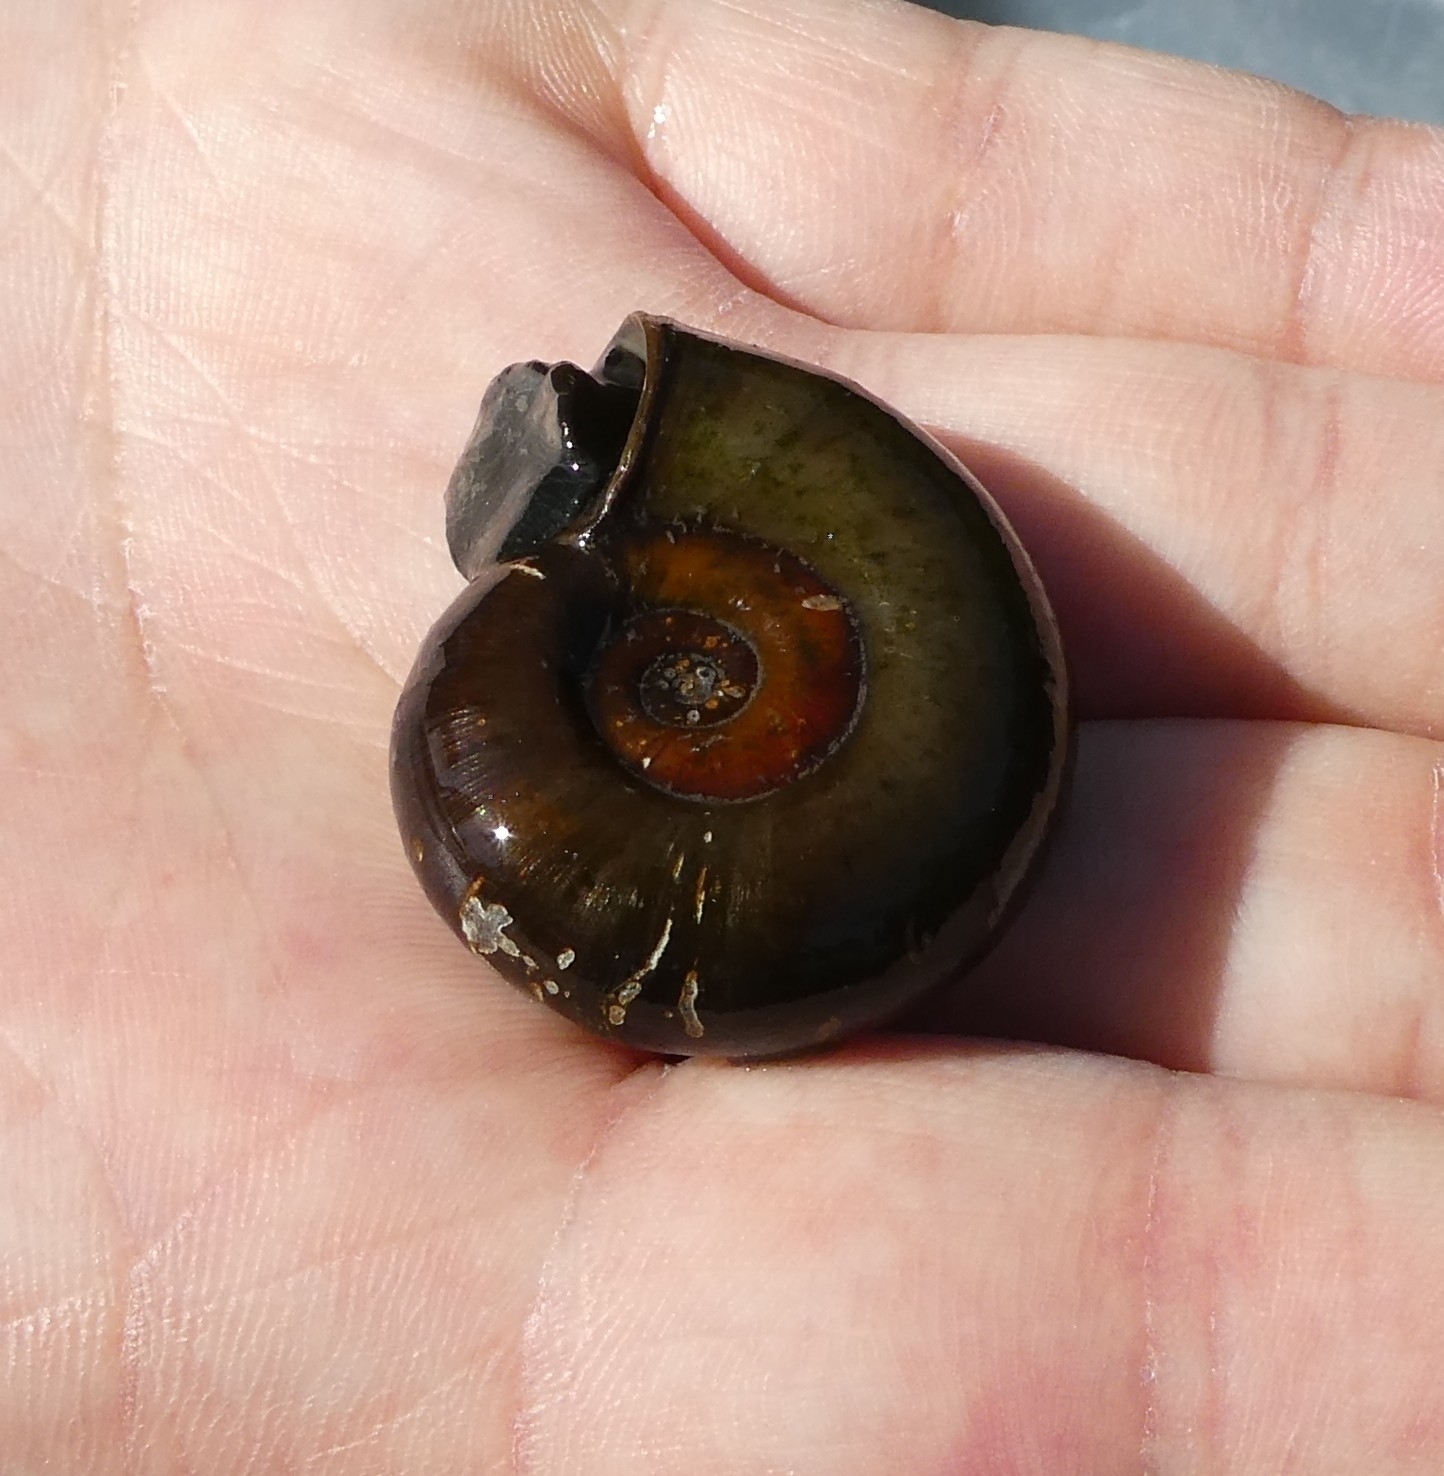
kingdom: Animalia
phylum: Mollusca
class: Gastropoda
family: Planorbidae
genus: Planorbarius
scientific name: Planorbarius corneus
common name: Great ramshorn
